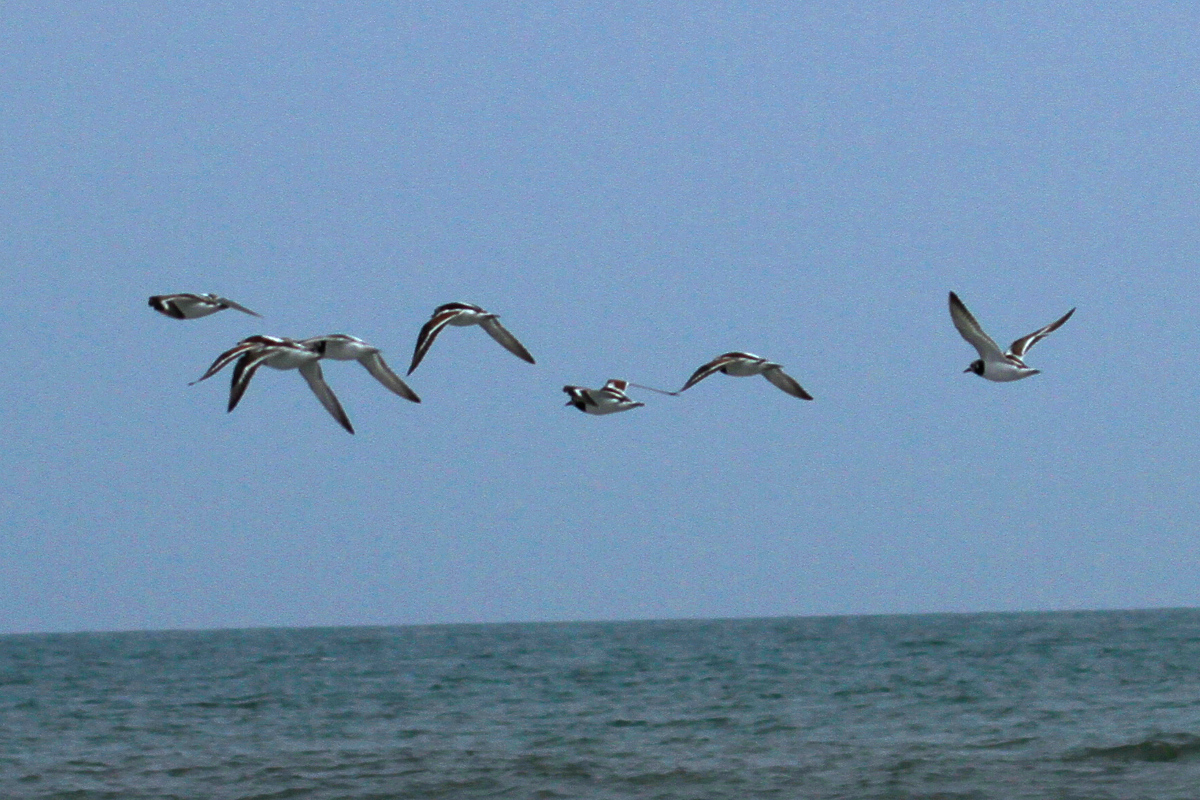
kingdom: Animalia
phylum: Chordata
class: Aves
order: Charadriiformes
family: Scolopacidae
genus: Arenaria
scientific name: Arenaria interpres
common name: Ruddy turnstone
